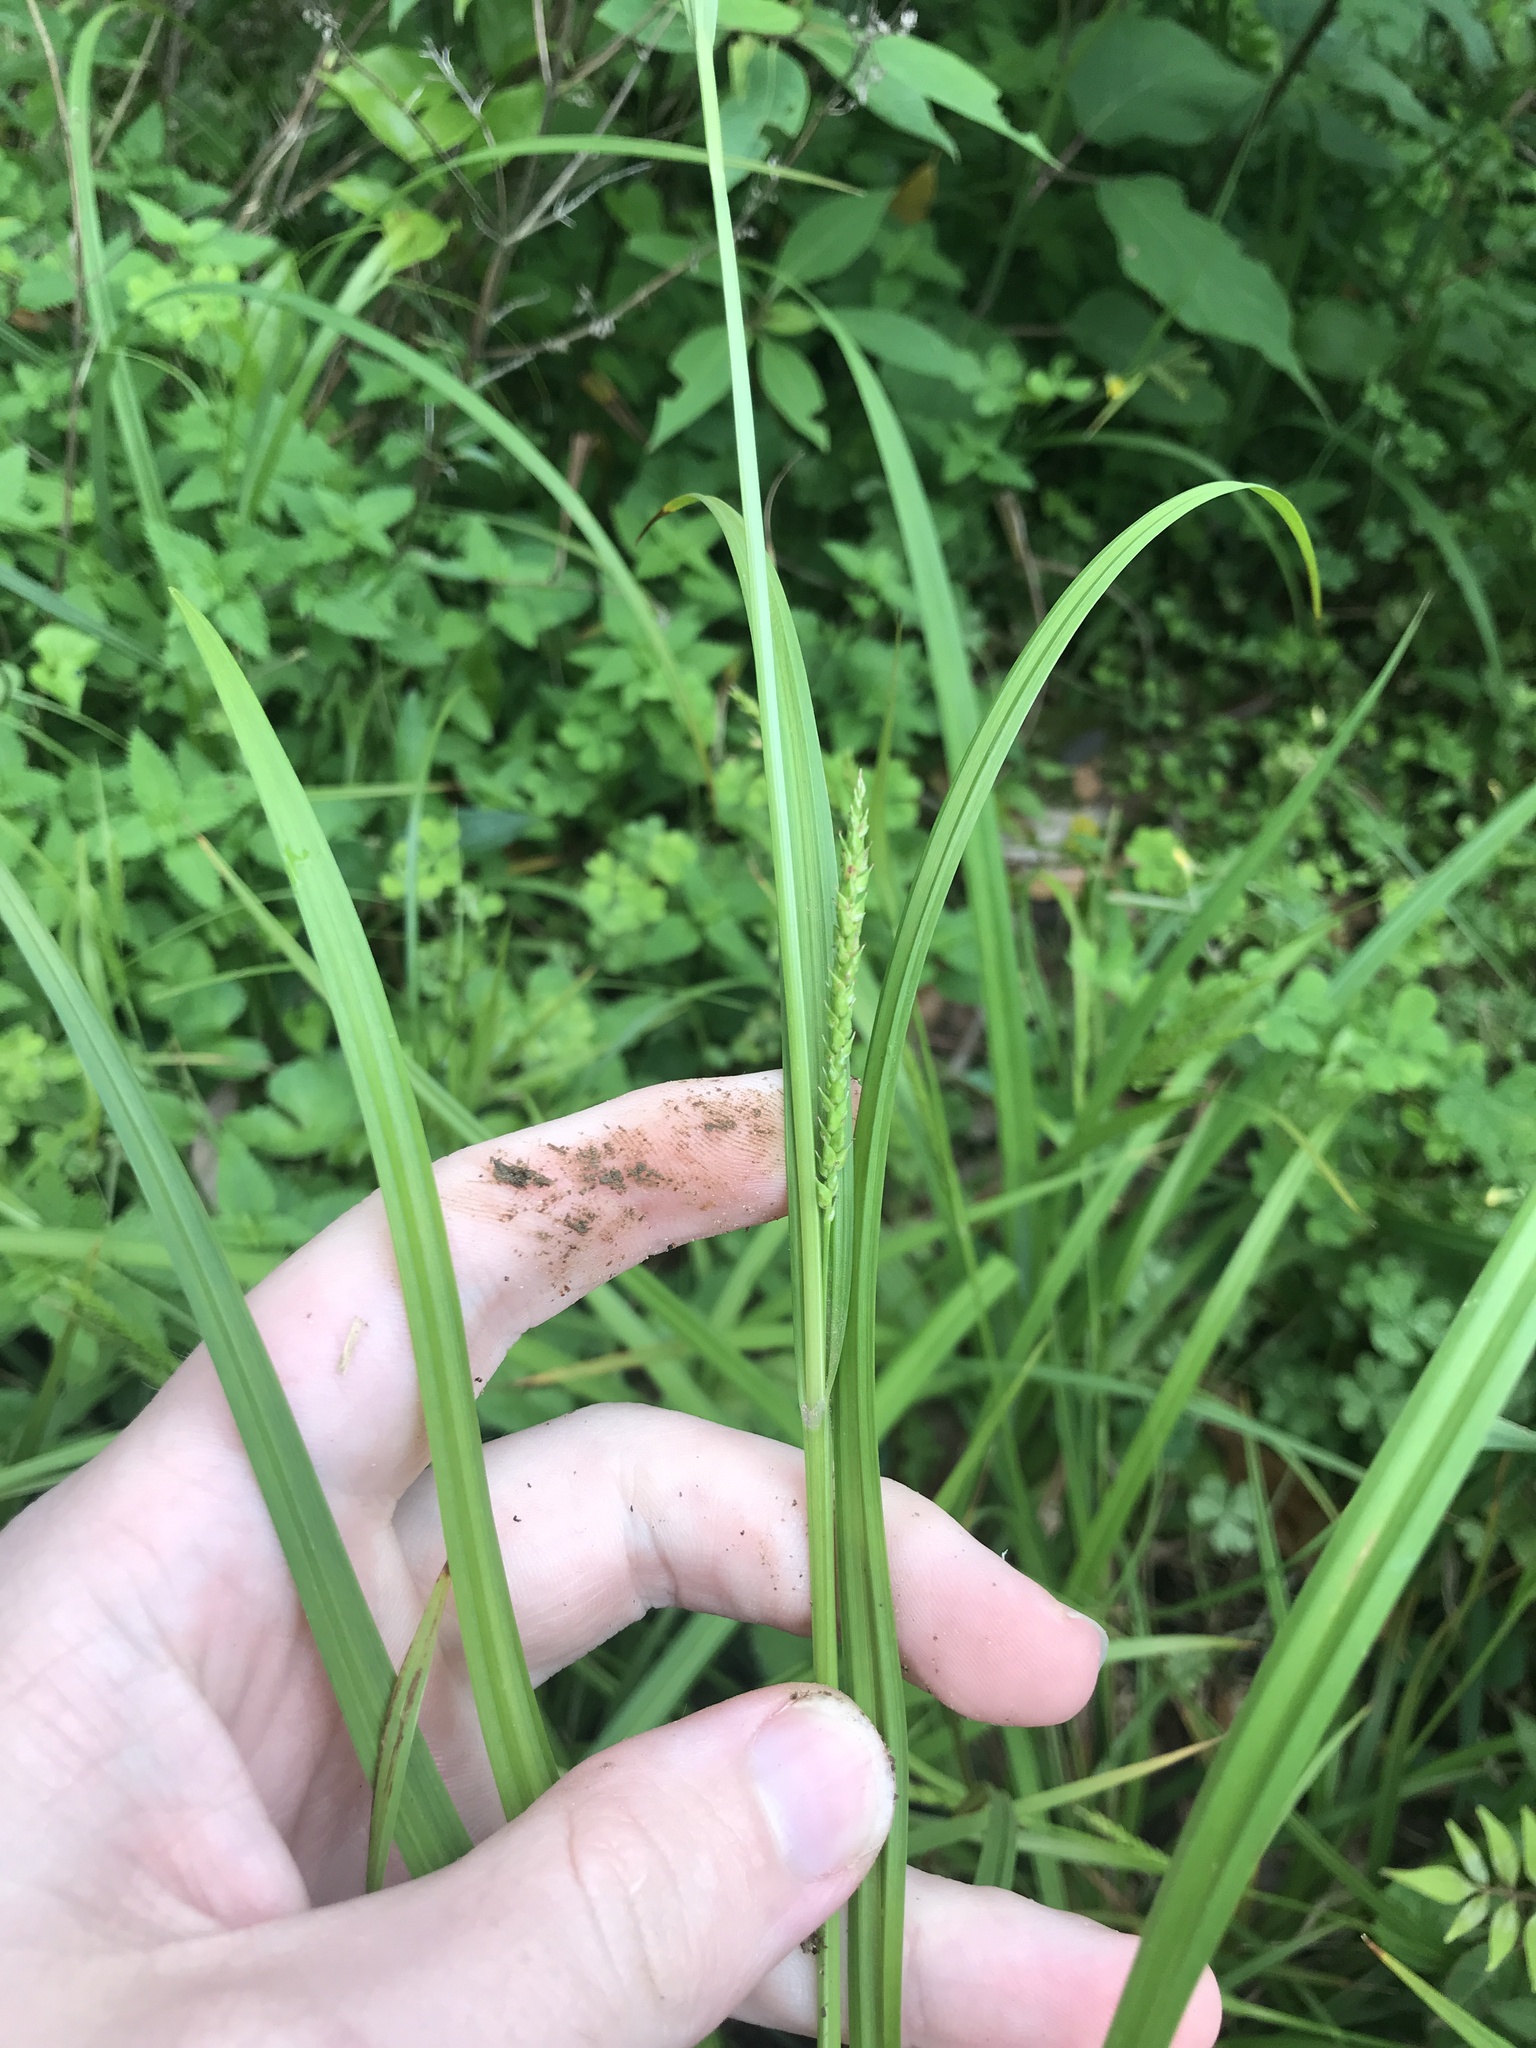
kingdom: Plantae
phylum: Tracheophyta
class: Liliopsida
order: Poales
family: Cyperaceae
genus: Carex
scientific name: Carex ischnostachya
